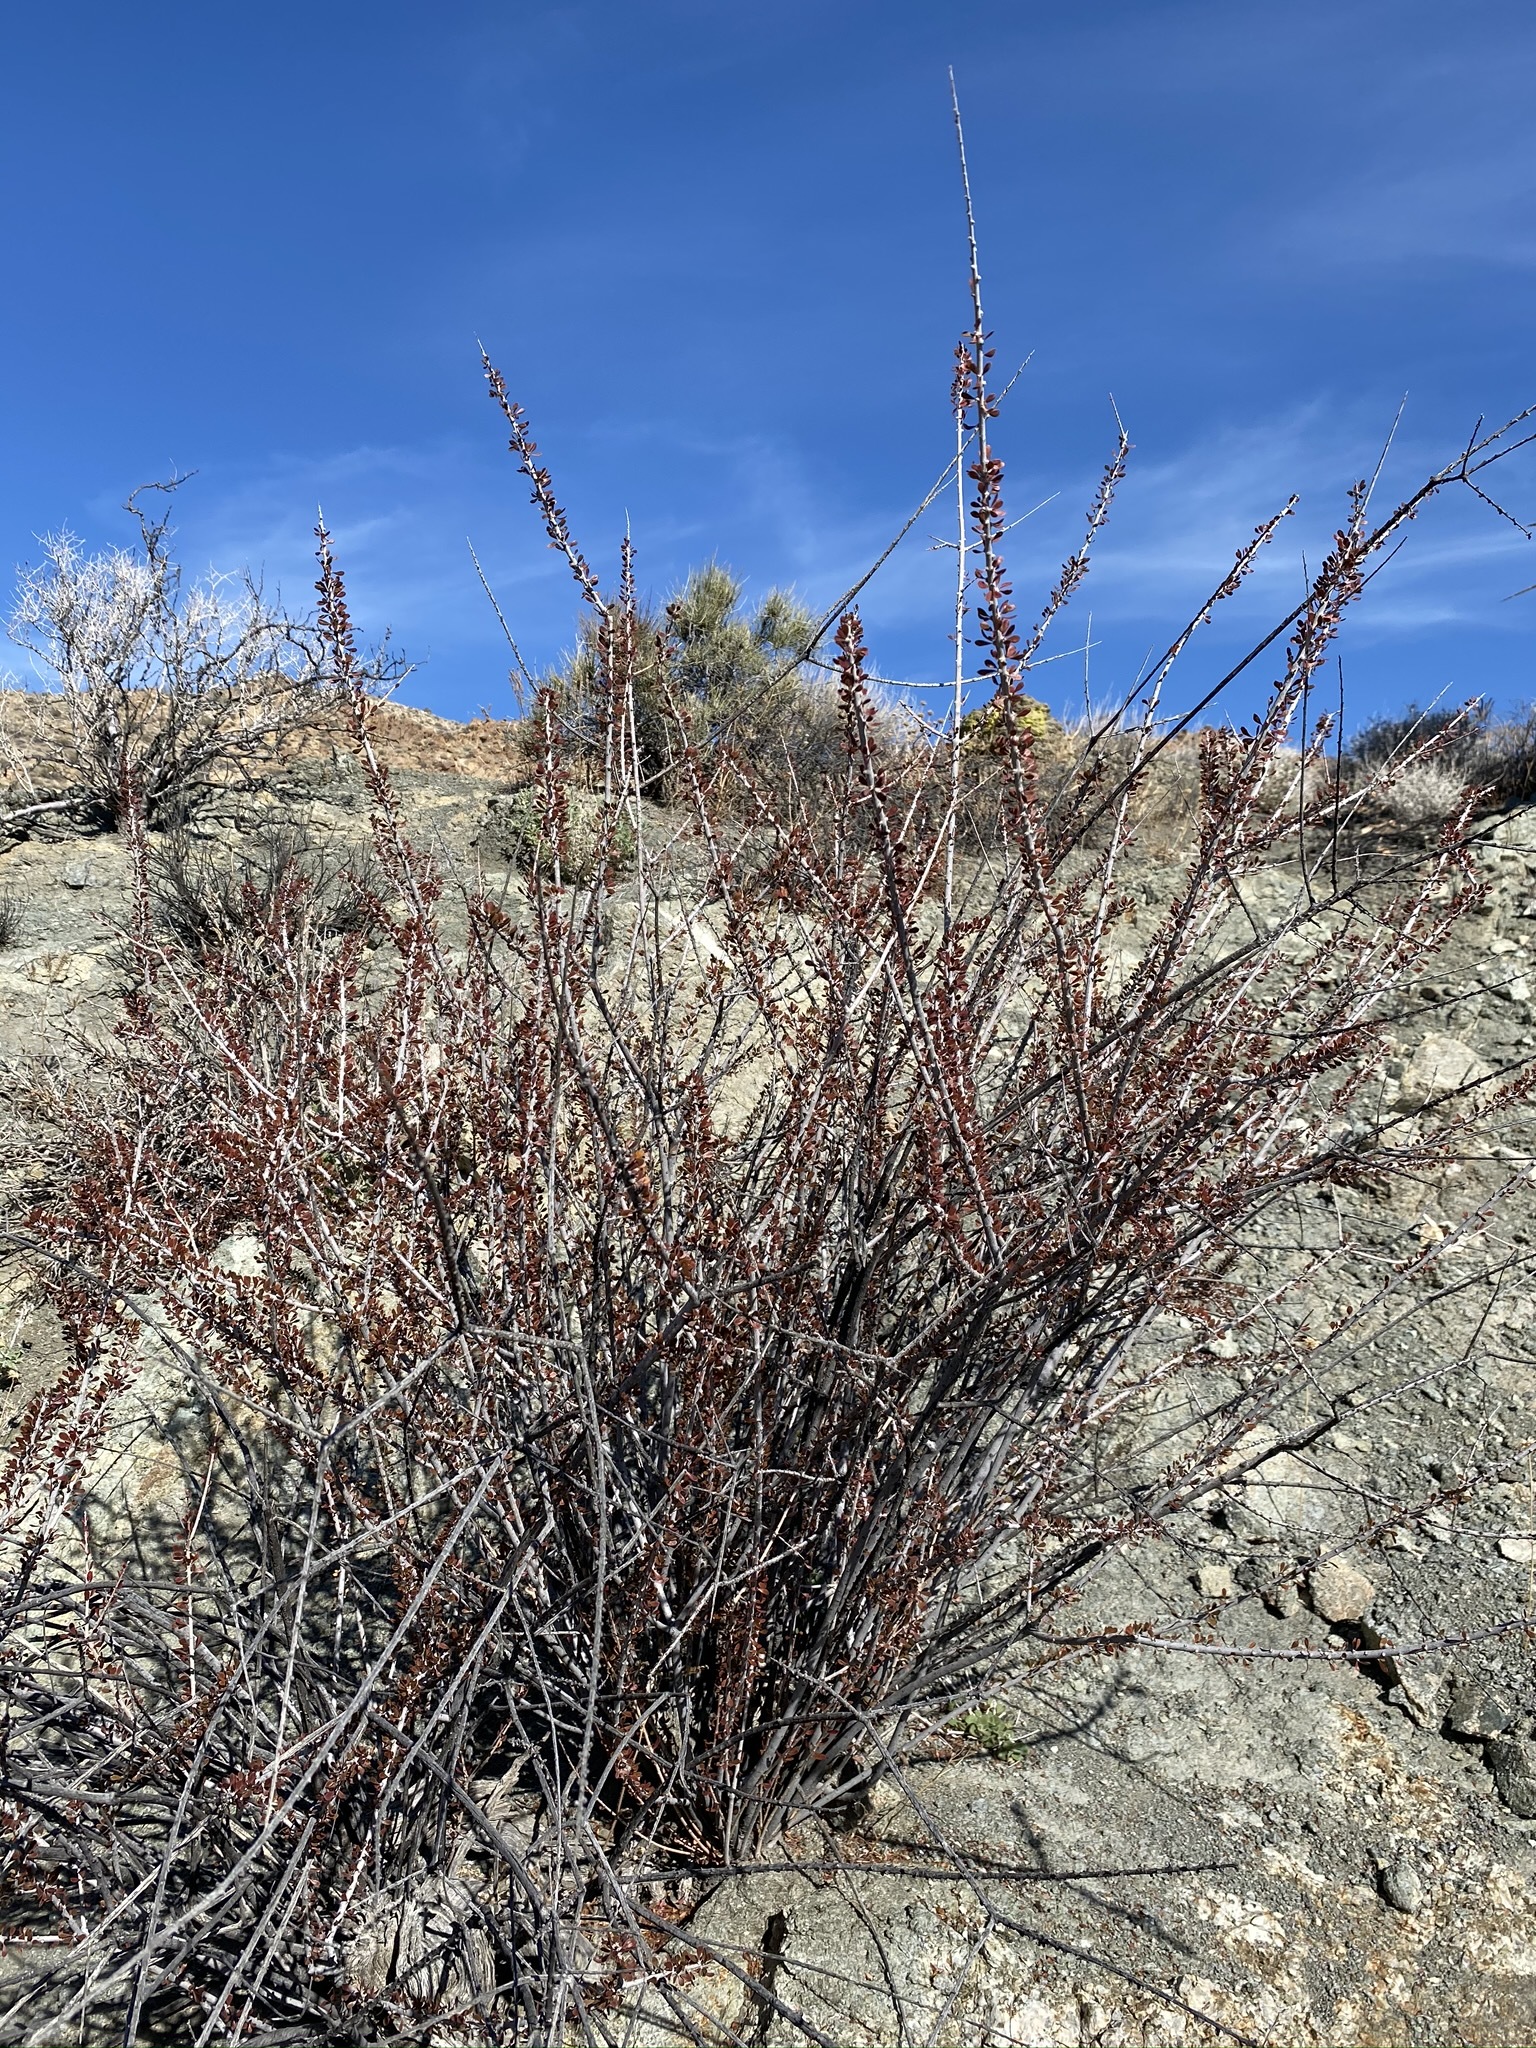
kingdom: Plantae
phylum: Tracheophyta
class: Magnoliopsida
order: Malpighiales
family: Picrodendraceae
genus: Tetracoccus
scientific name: Tetracoccus hallii
